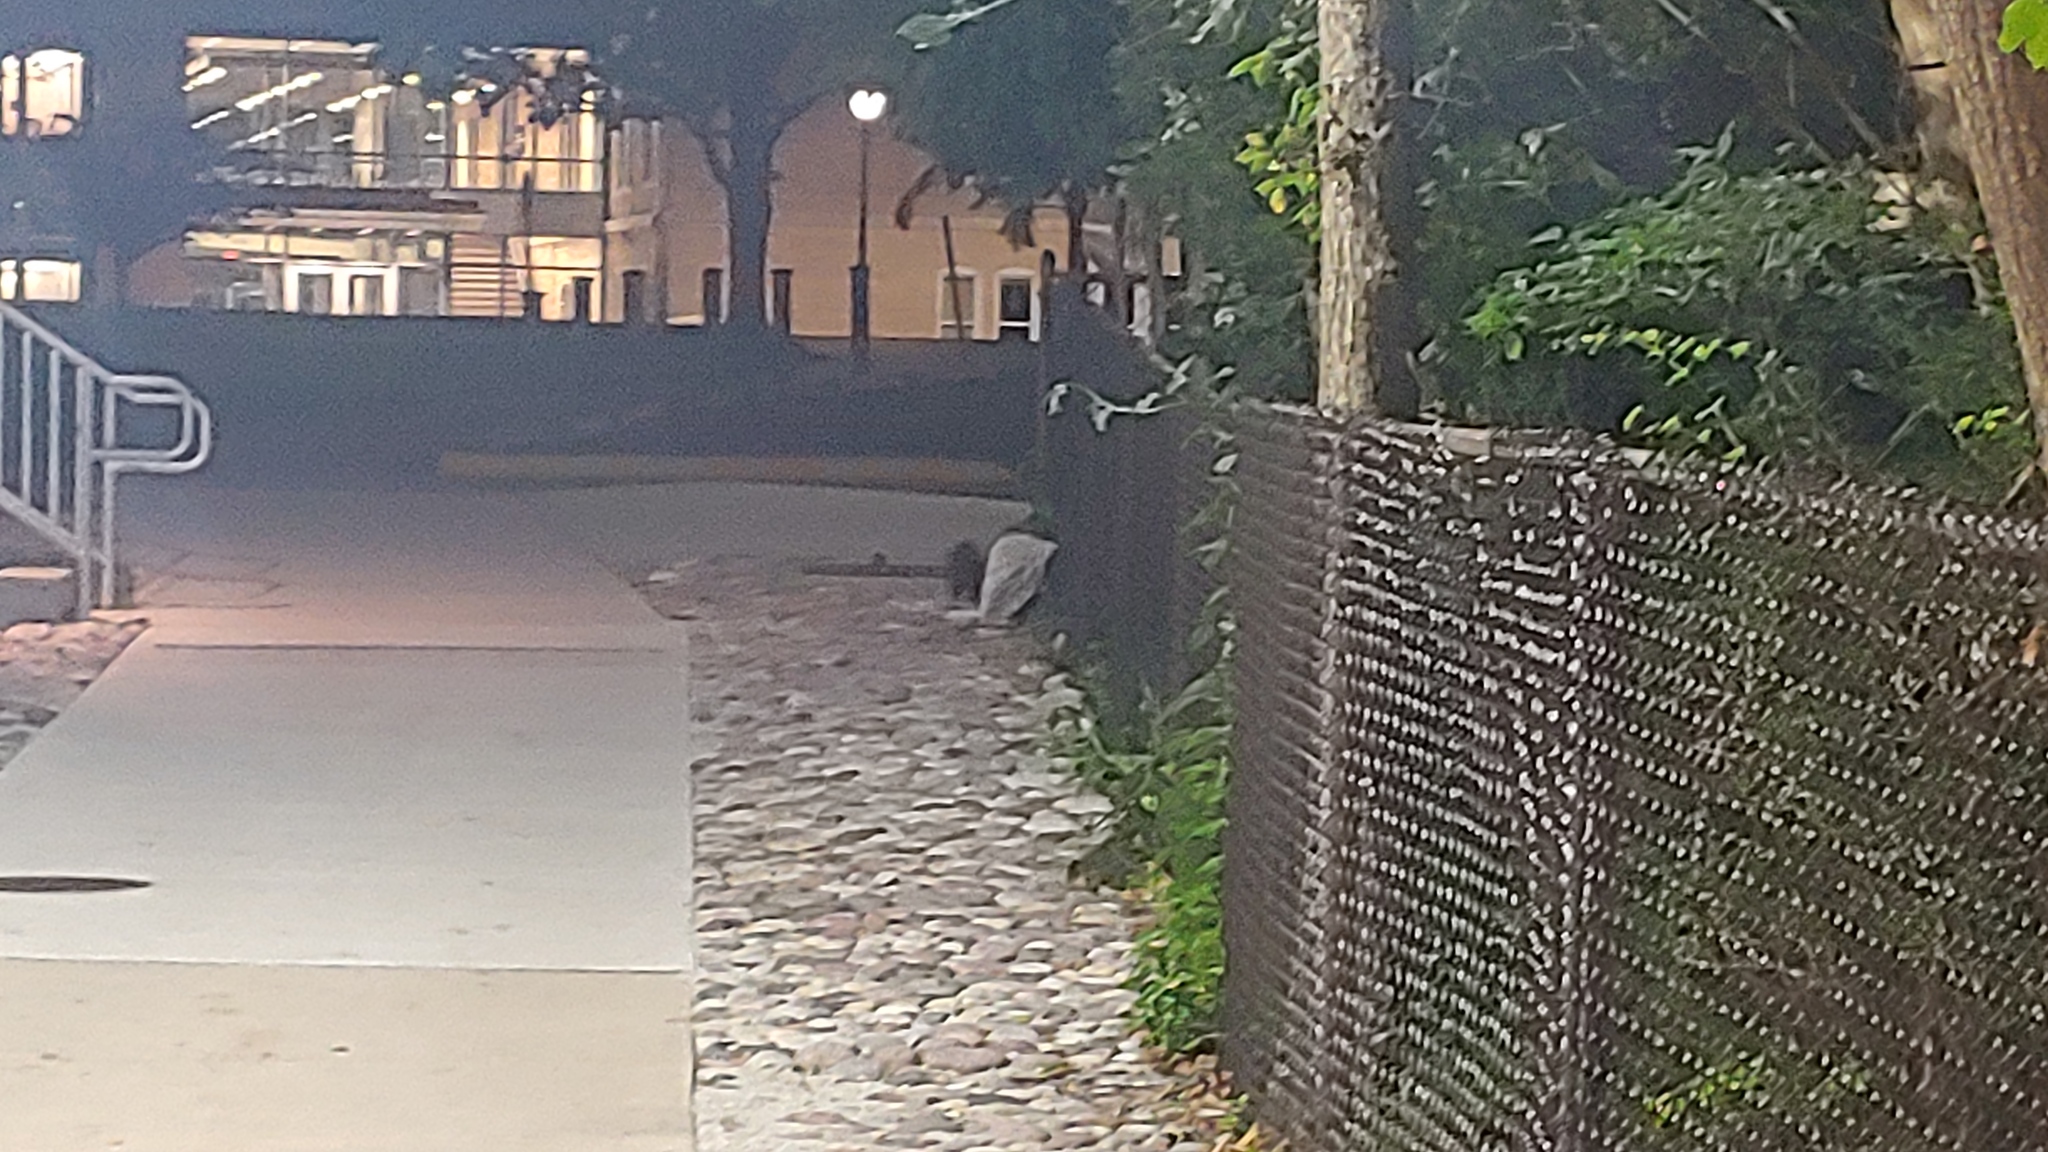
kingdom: Animalia
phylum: Chordata
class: Mammalia
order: Carnivora
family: Mephitidae
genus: Mephitis
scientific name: Mephitis mephitis
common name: Striped skunk
